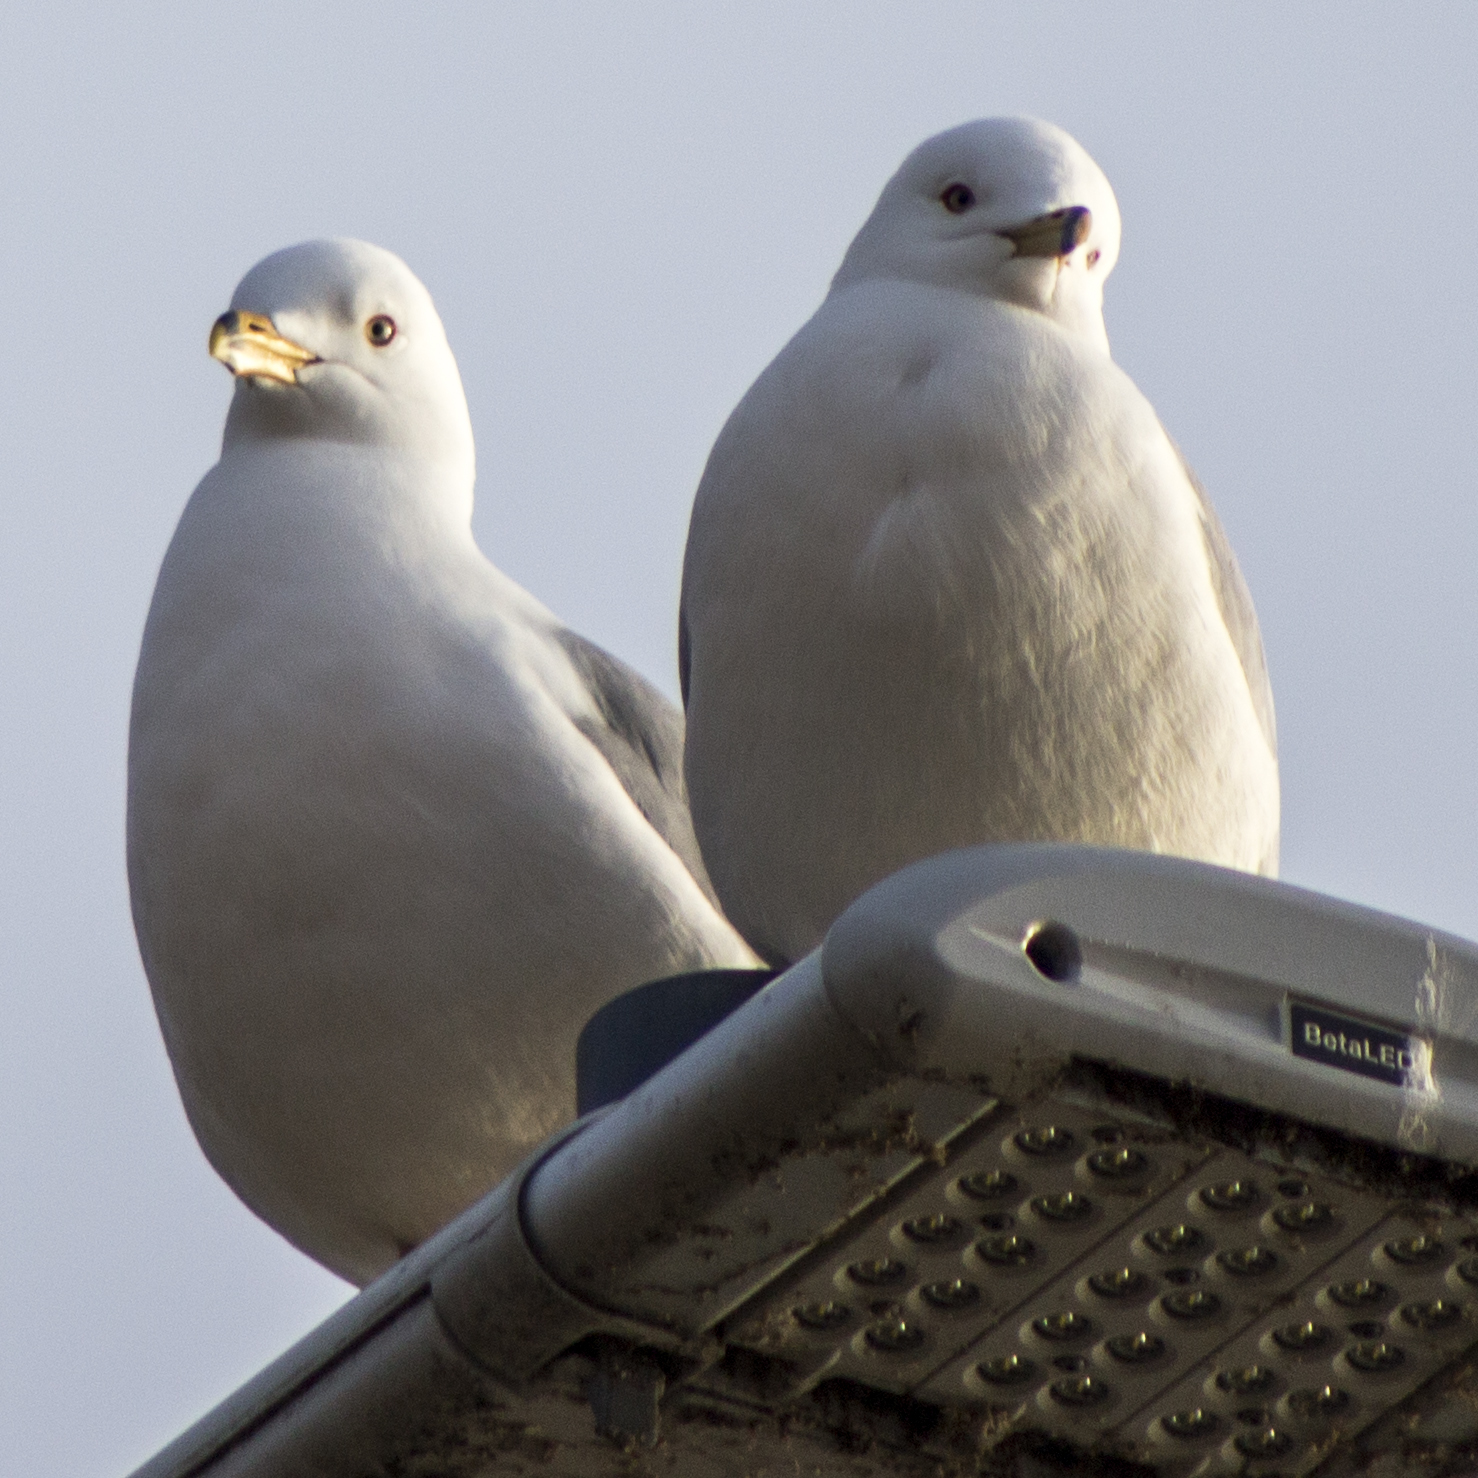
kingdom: Animalia
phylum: Chordata
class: Aves
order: Charadriiformes
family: Laridae
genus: Larus
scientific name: Larus delawarensis
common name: Ring-billed gull
